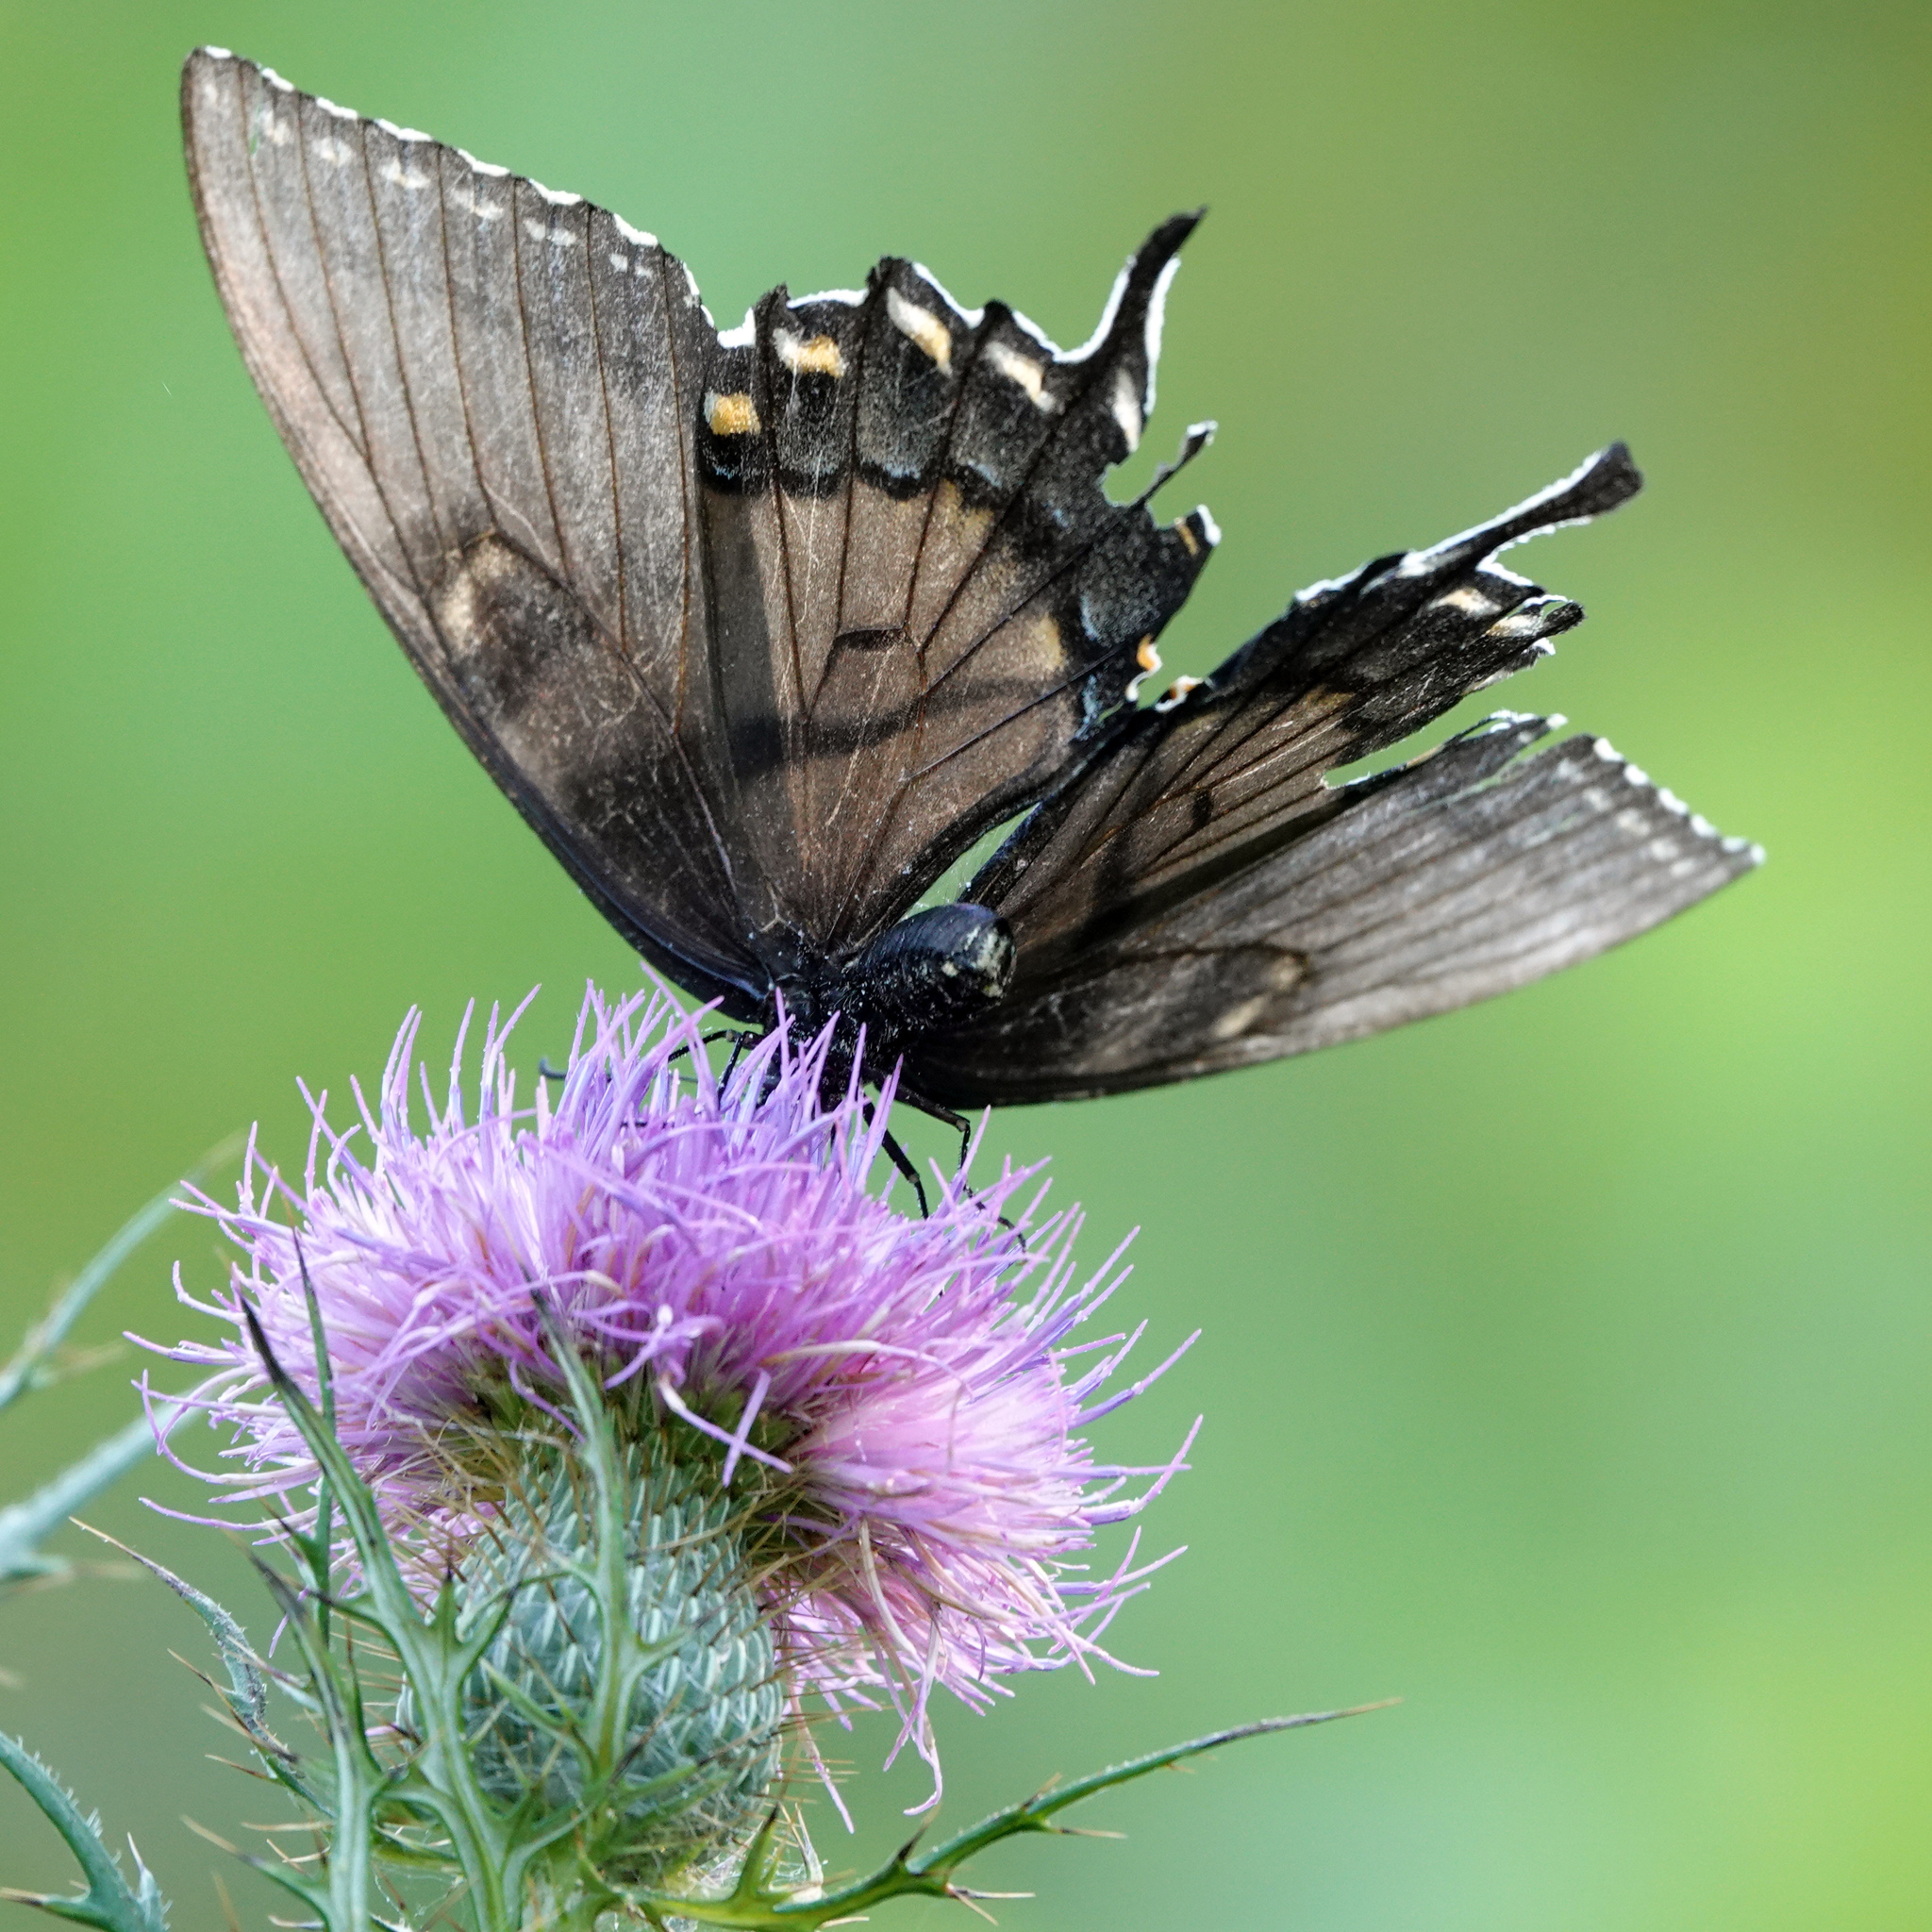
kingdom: Animalia
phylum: Arthropoda
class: Insecta
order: Lepidoptera
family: Papilionidae
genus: Papilio
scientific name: Papilio glaucus
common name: Tiger swallowtail
